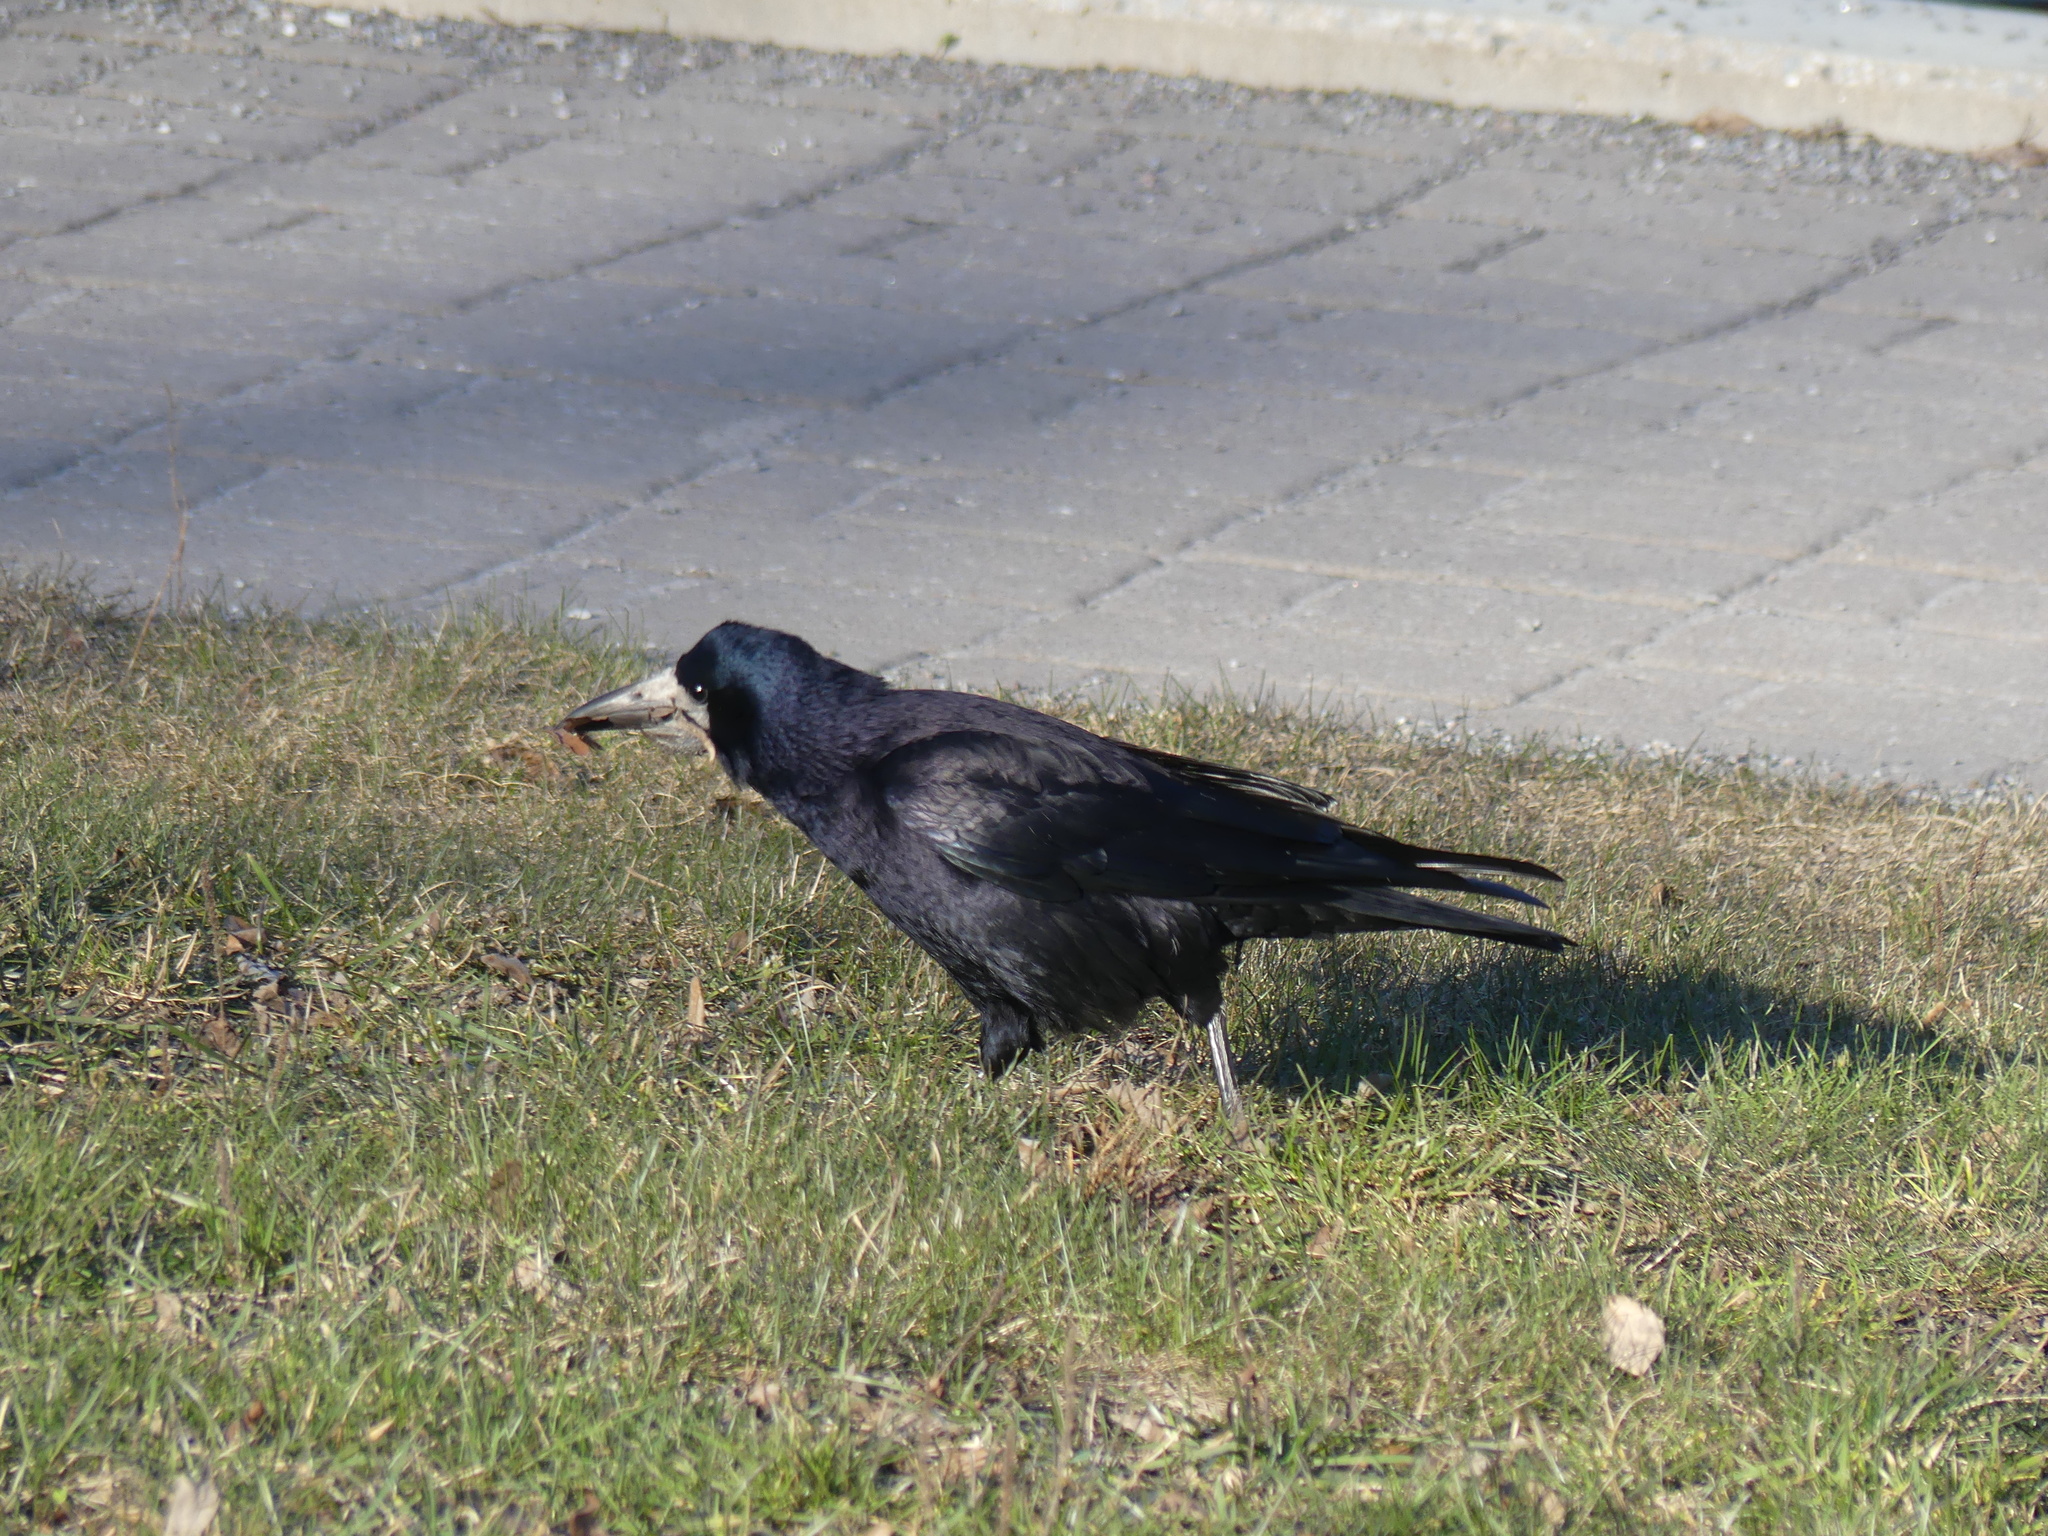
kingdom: Animalia
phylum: Chordata
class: Aves
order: Passeriformes
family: Corvidae
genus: Corvus
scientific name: Corvus frugilegus
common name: Rook
